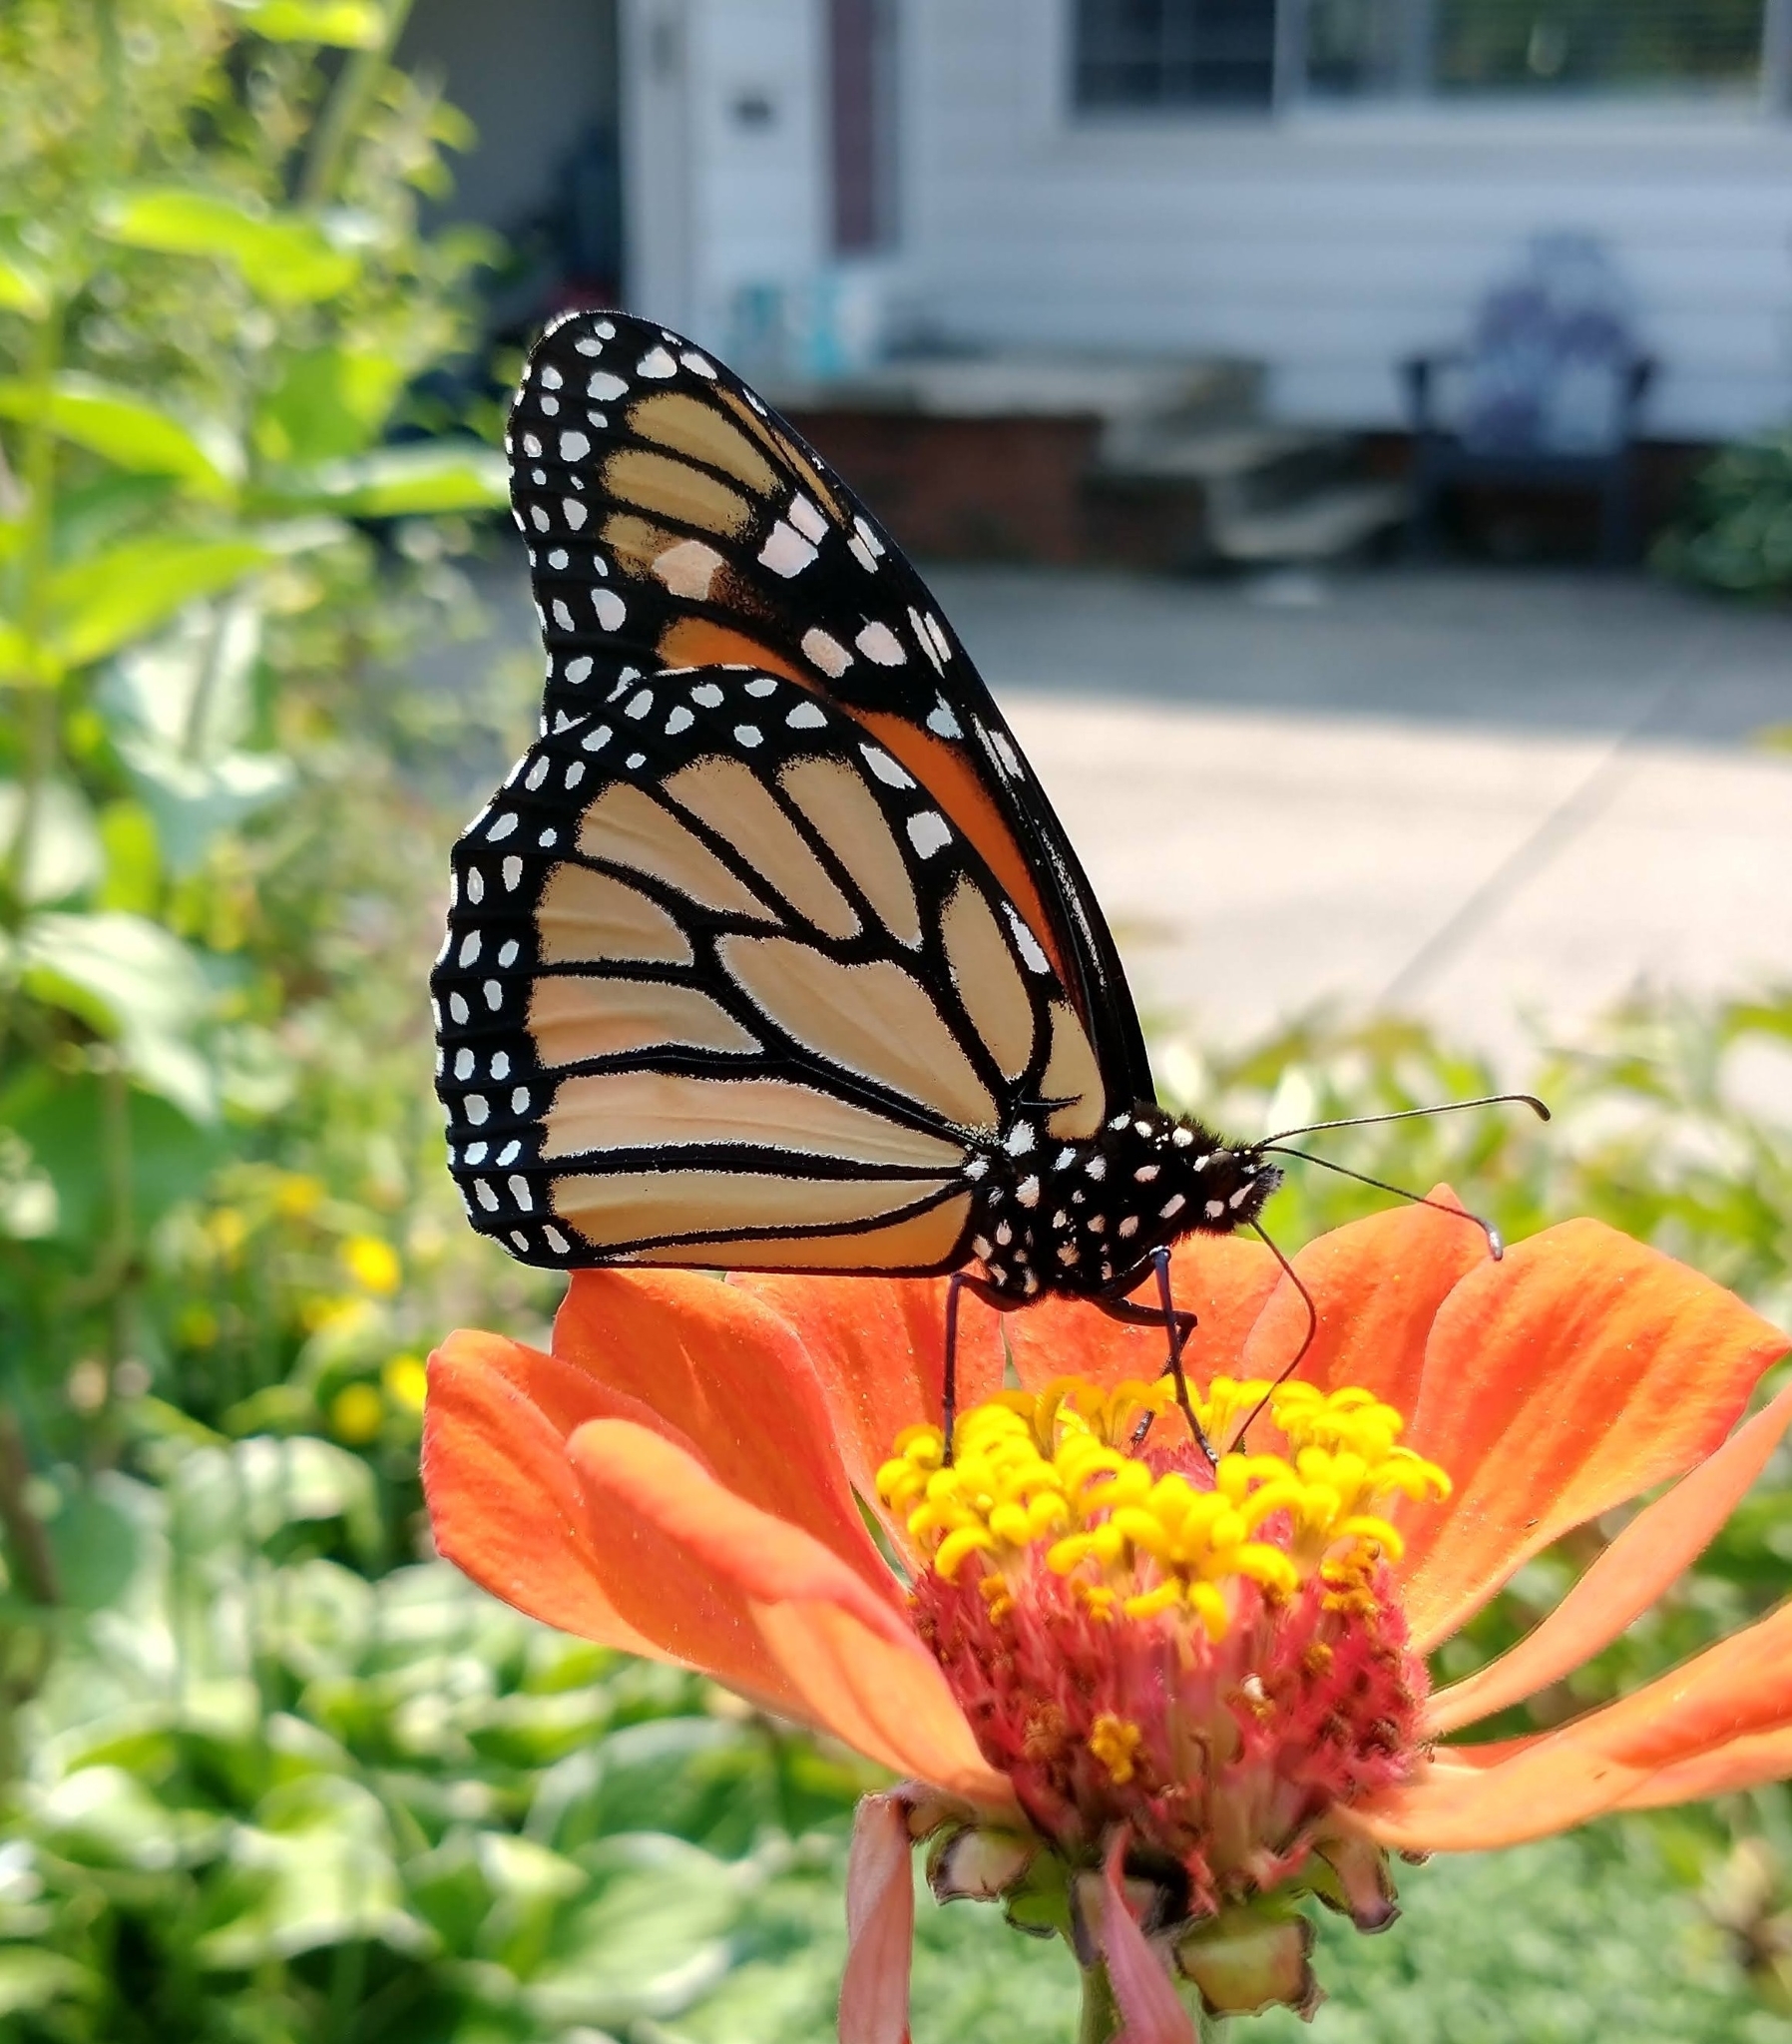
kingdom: Animalia
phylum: Arthropoda
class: Insecta
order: Lepidoptera
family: Nymphalidae
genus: Danaus
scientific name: Danaus plexippus
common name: Monarch
